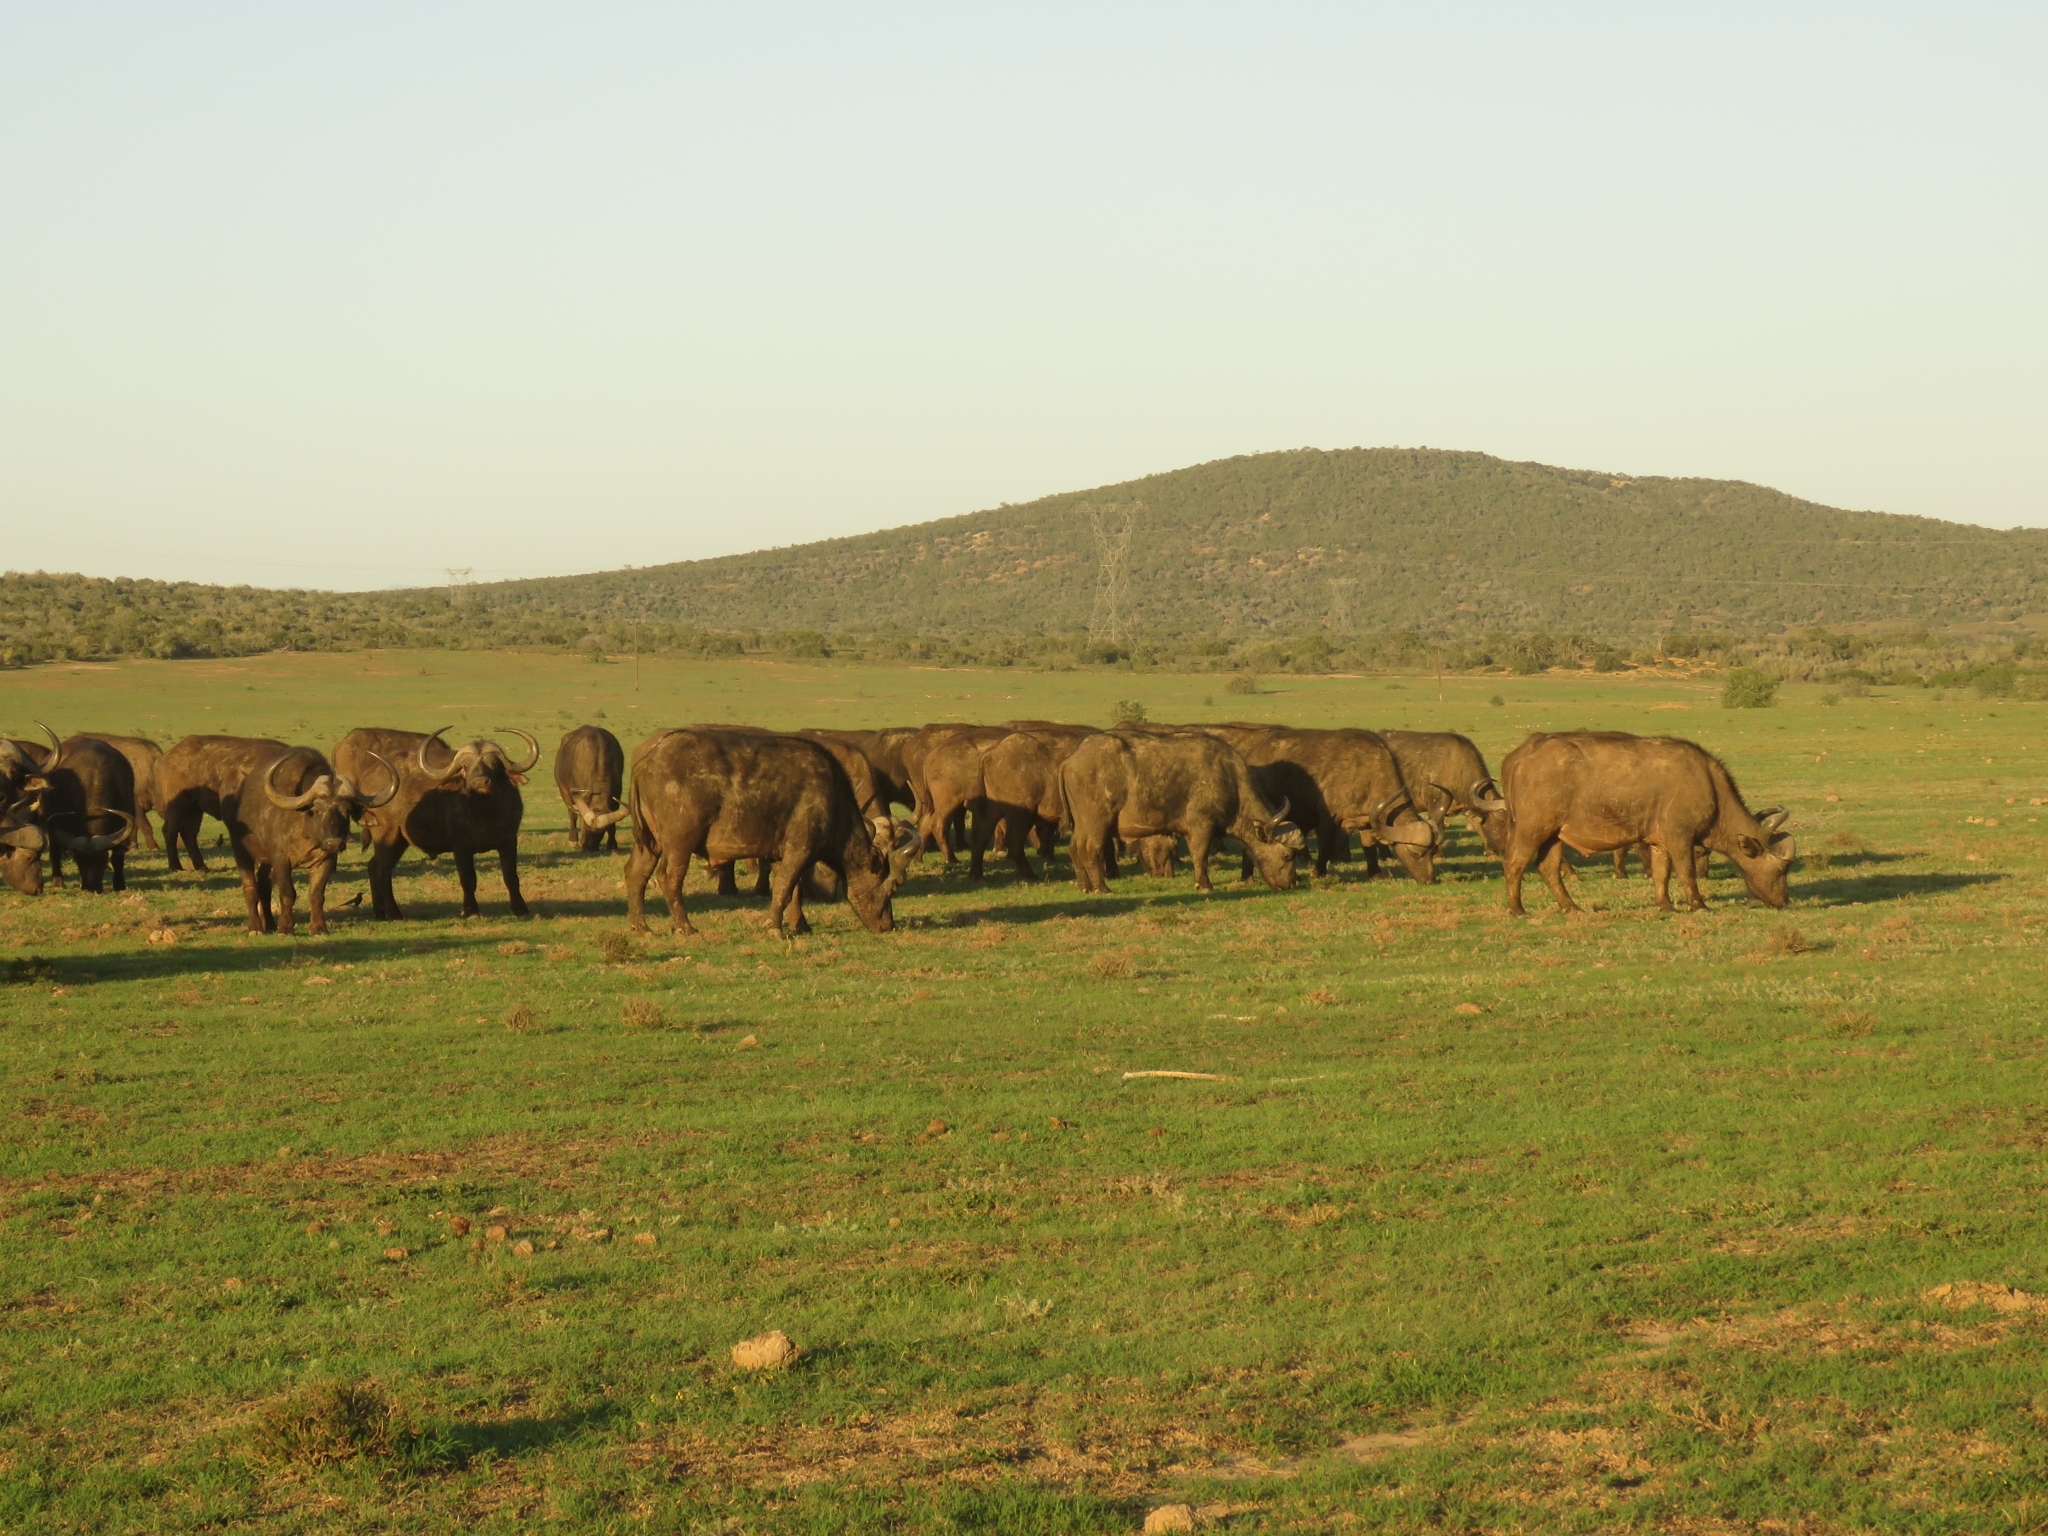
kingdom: Animalia
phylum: Chordata
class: Mammalia
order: Artiodactyla
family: Bovidae
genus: Syncerus
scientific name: Syncerus caffer
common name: African buffalo
